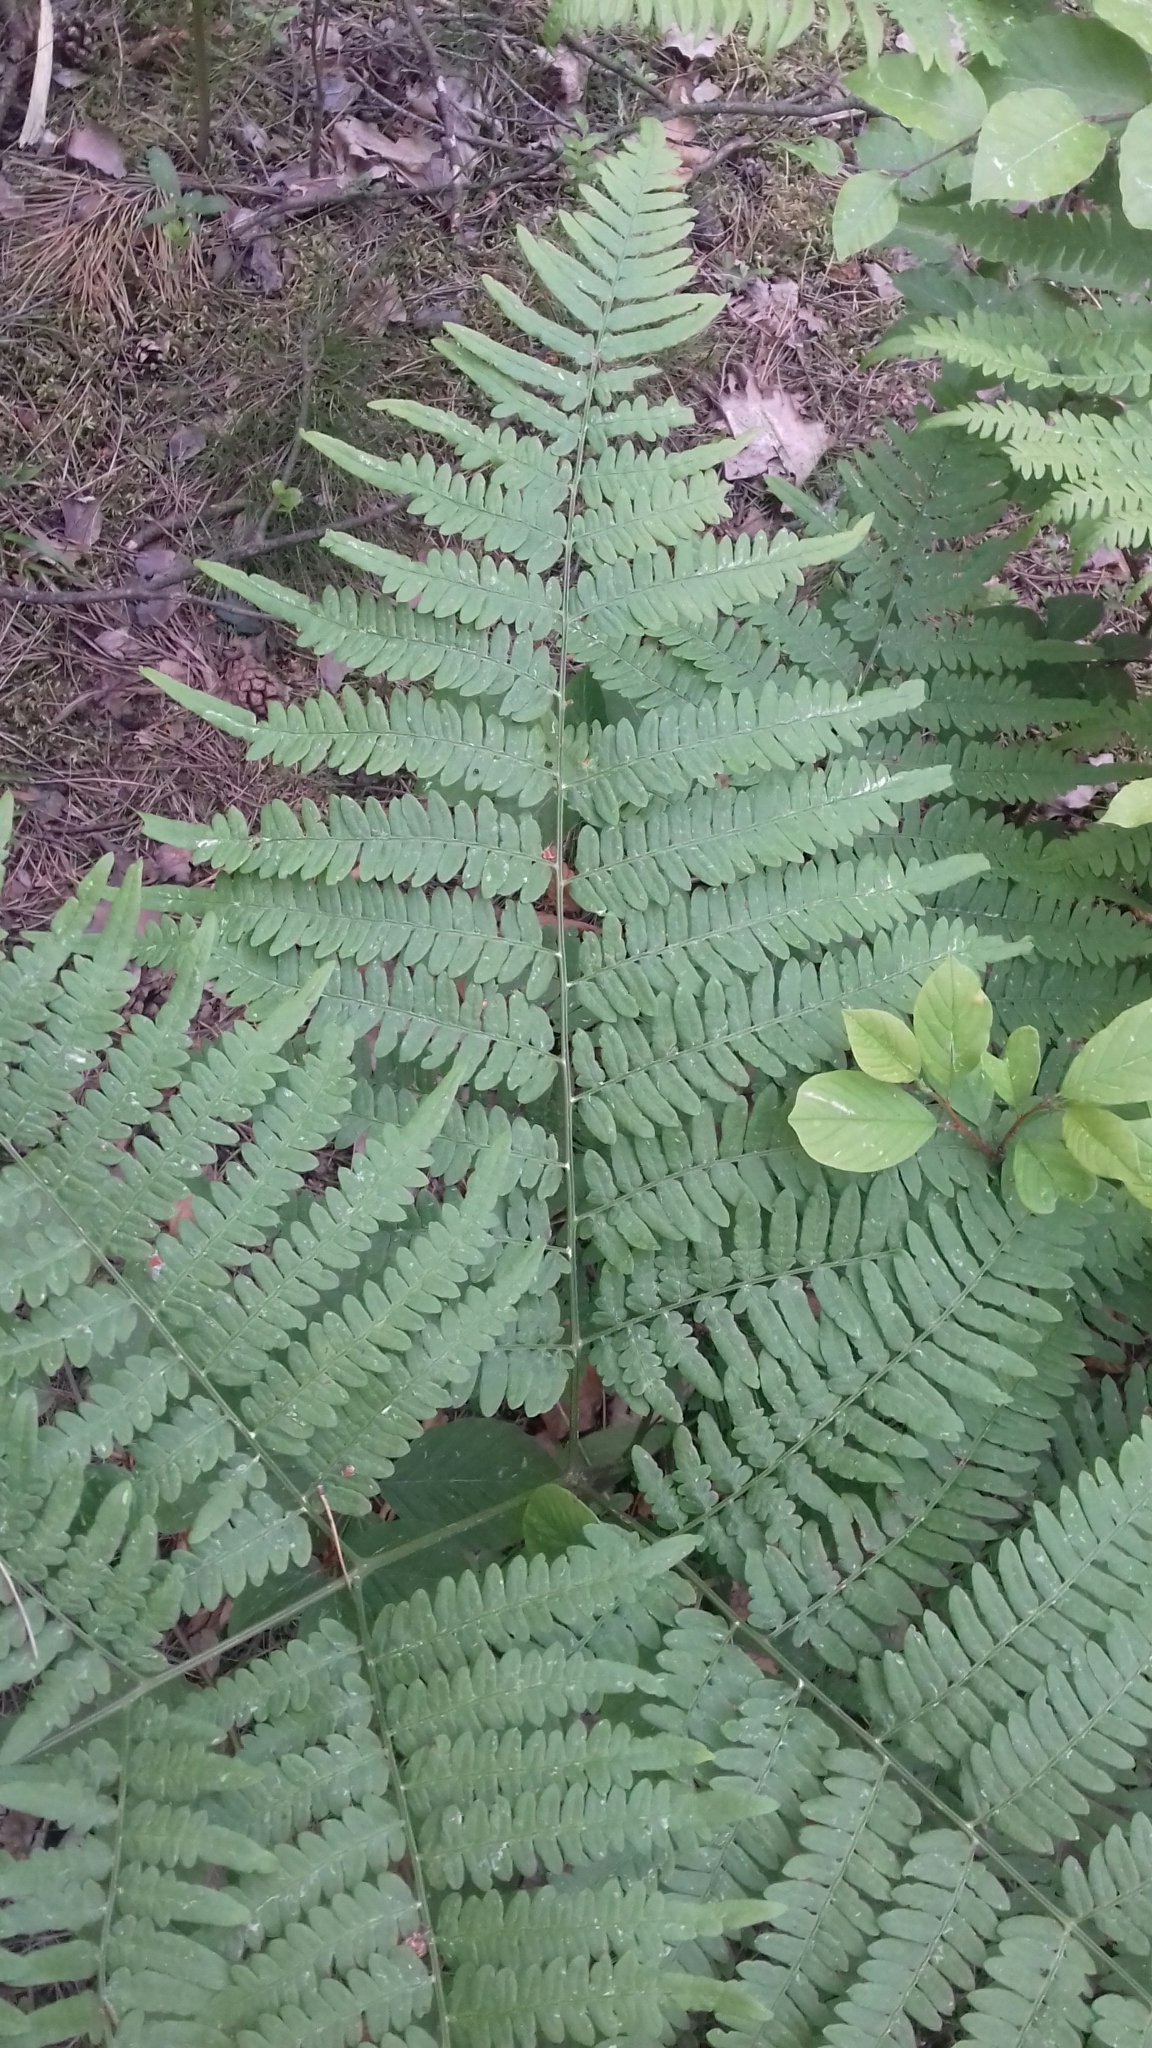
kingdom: Plantae
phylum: Tracheophyta
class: Polypodiopsida
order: Polypodiales
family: Dennstaedtiaceae
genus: Pteridium
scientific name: Pteridium aquilinum
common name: Bracken
